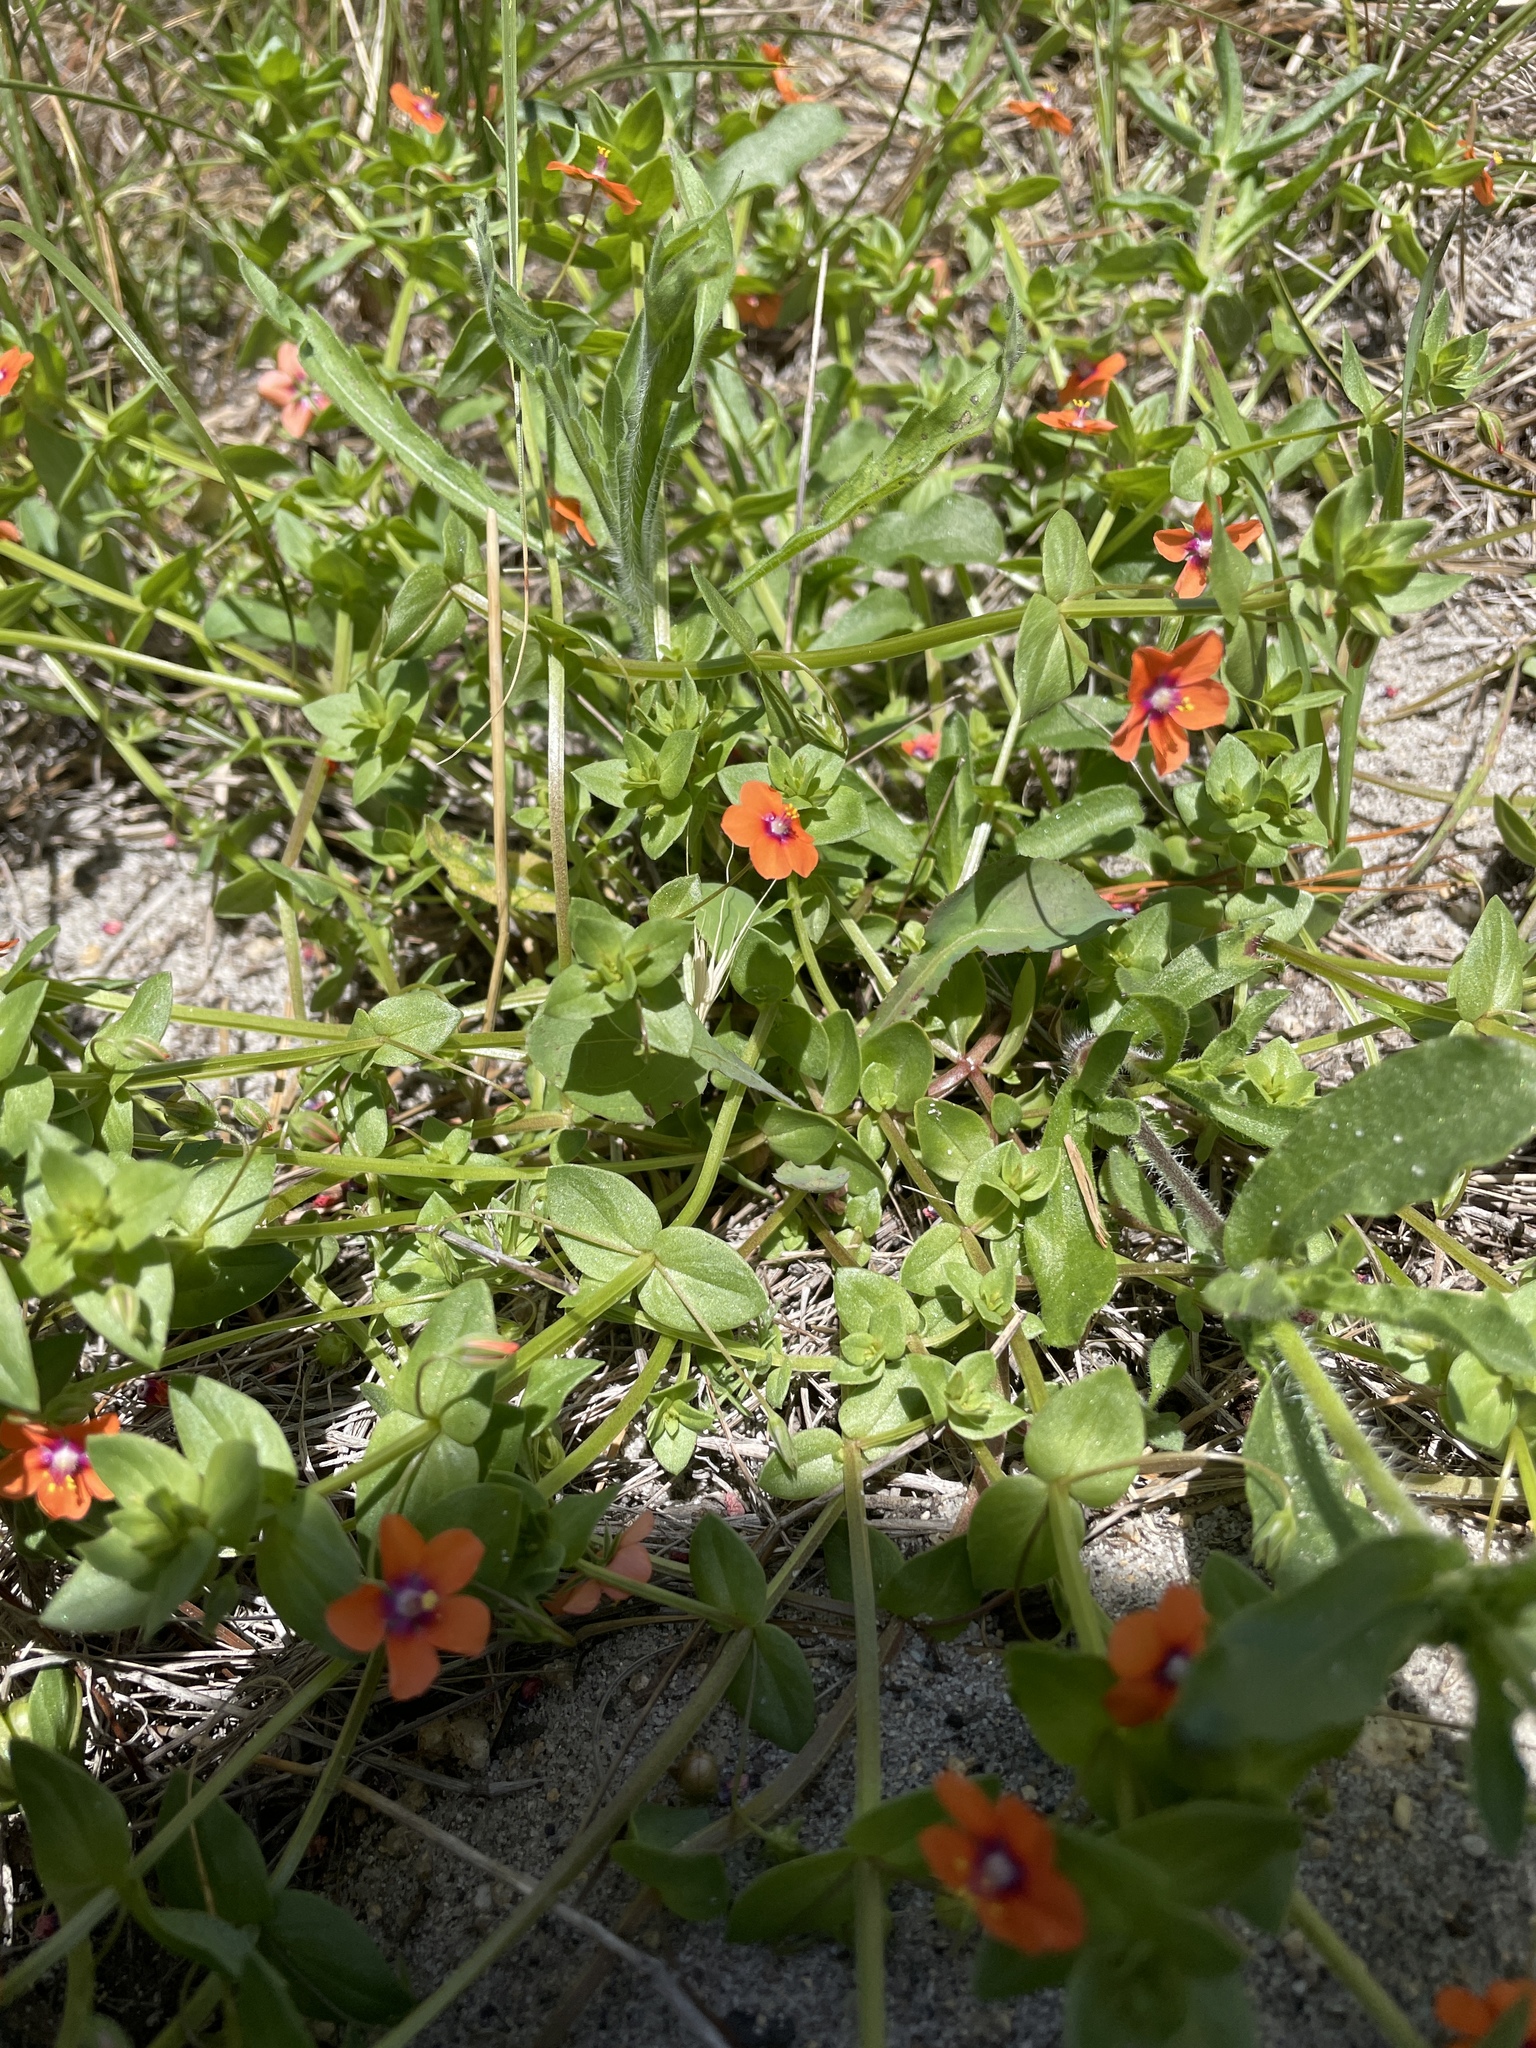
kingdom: Plantae
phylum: Tracheophyta
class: Magnoliopsida
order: Ericales
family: Primulaceae
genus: Lysimachia
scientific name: Lysimachia arvensis
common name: Scarlet pimpernel
